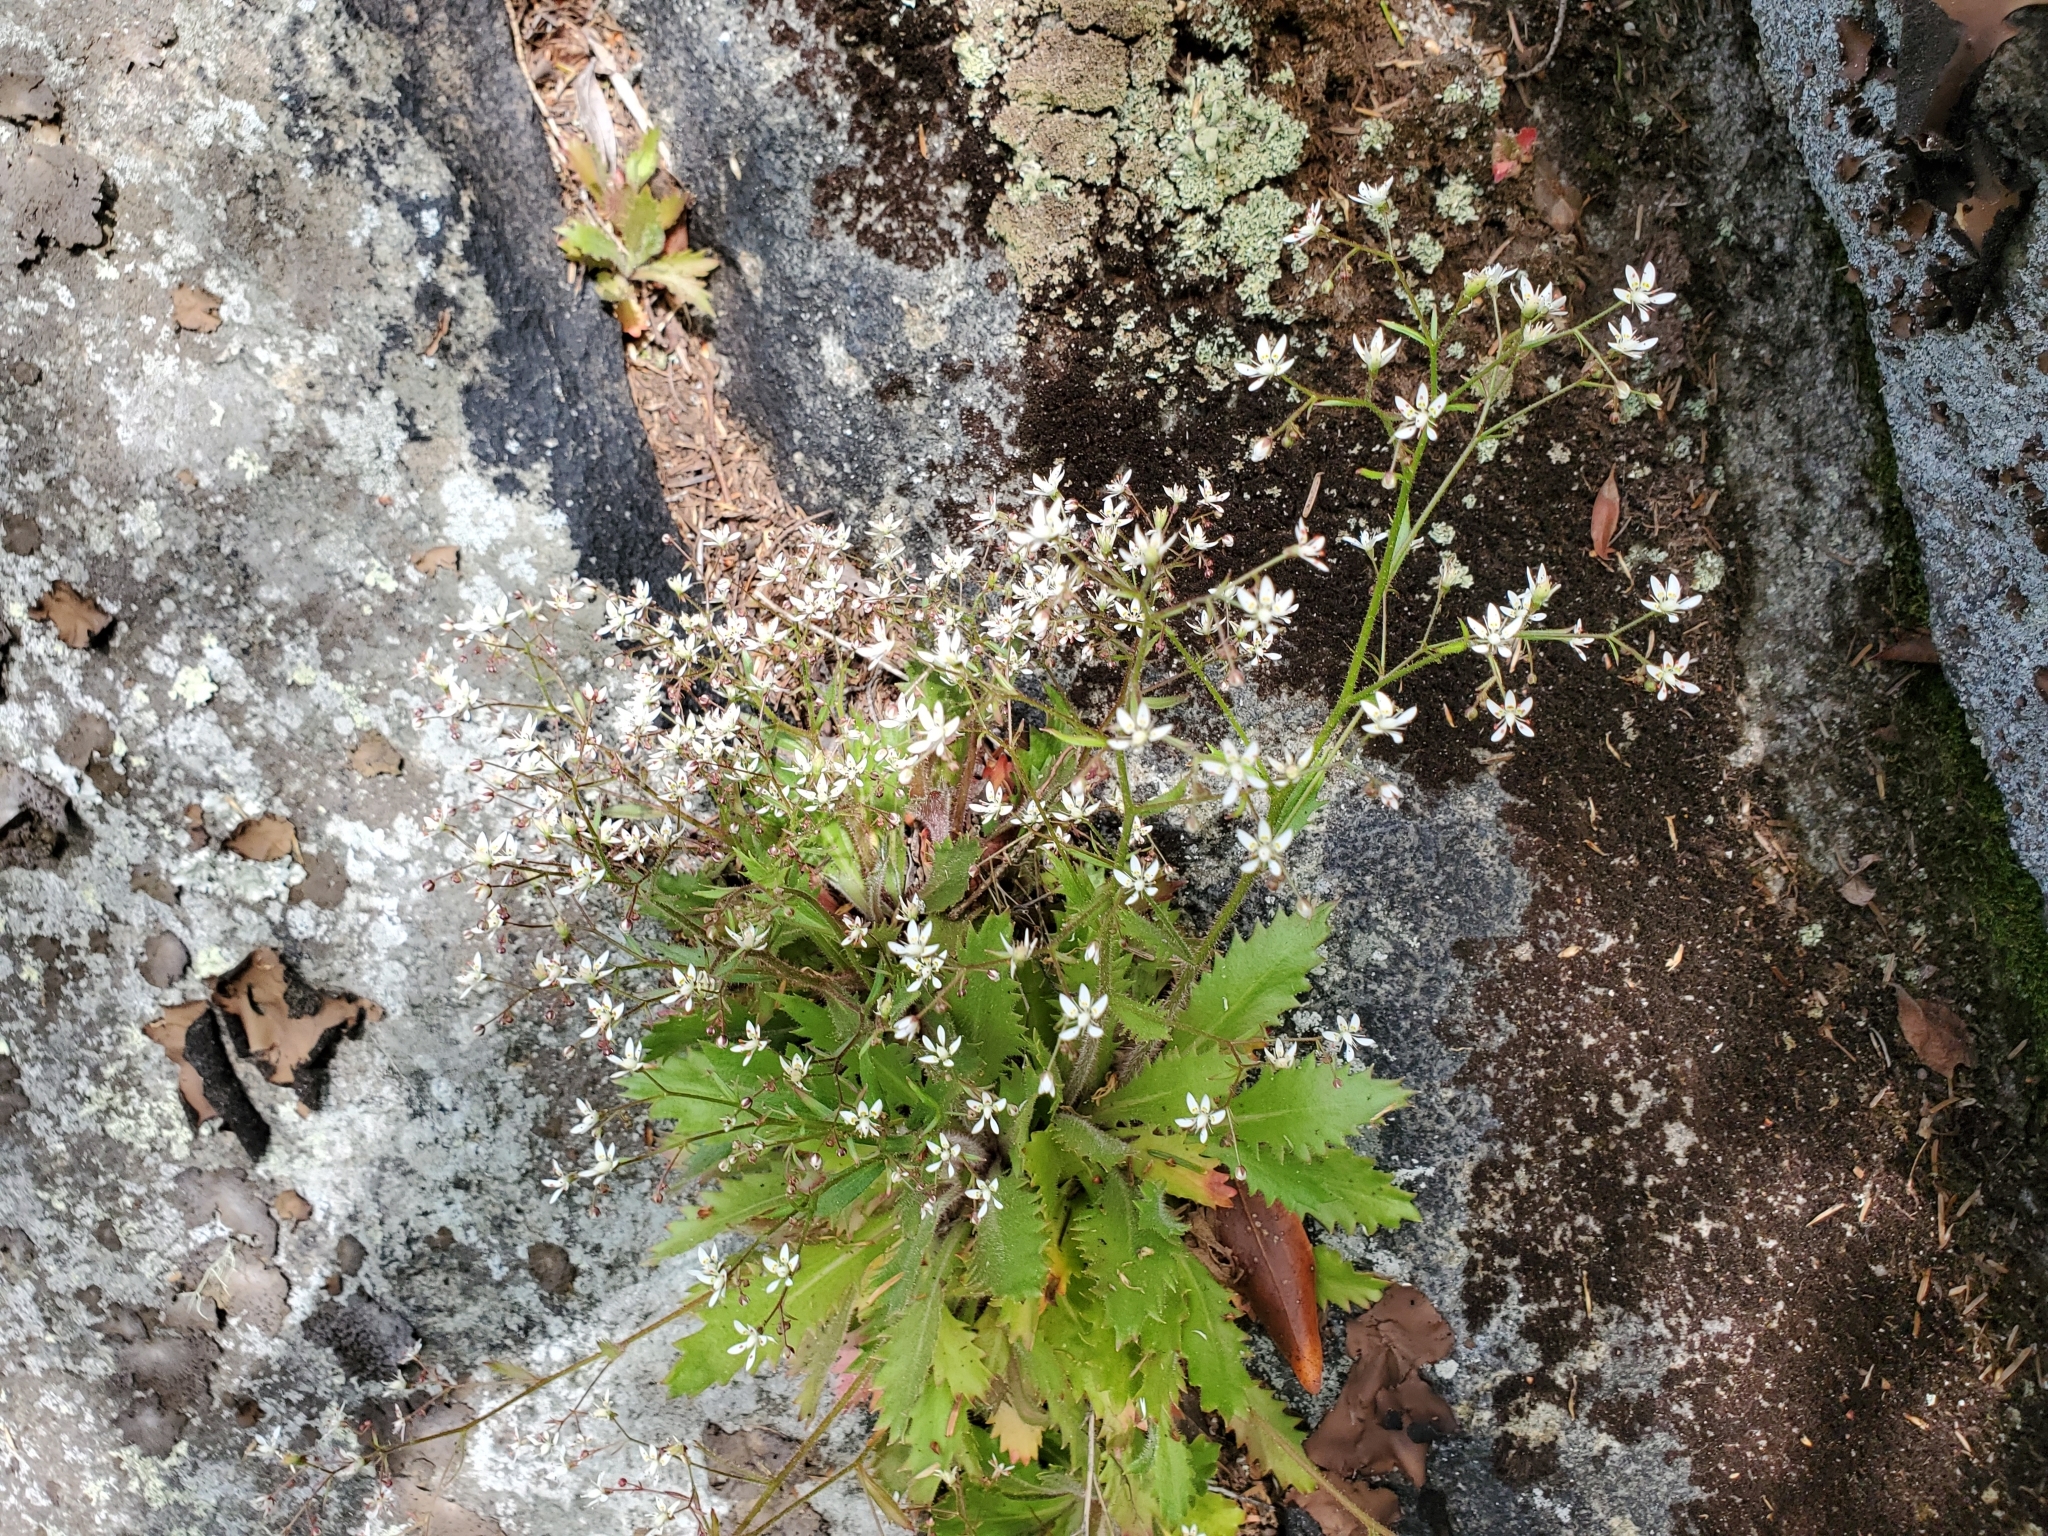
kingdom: Plantae
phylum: Tracheophyta
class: Magnoliopsida
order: Saxifragales
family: Saxifragaceae
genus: Micranthes
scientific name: Micranthes petiolaris
